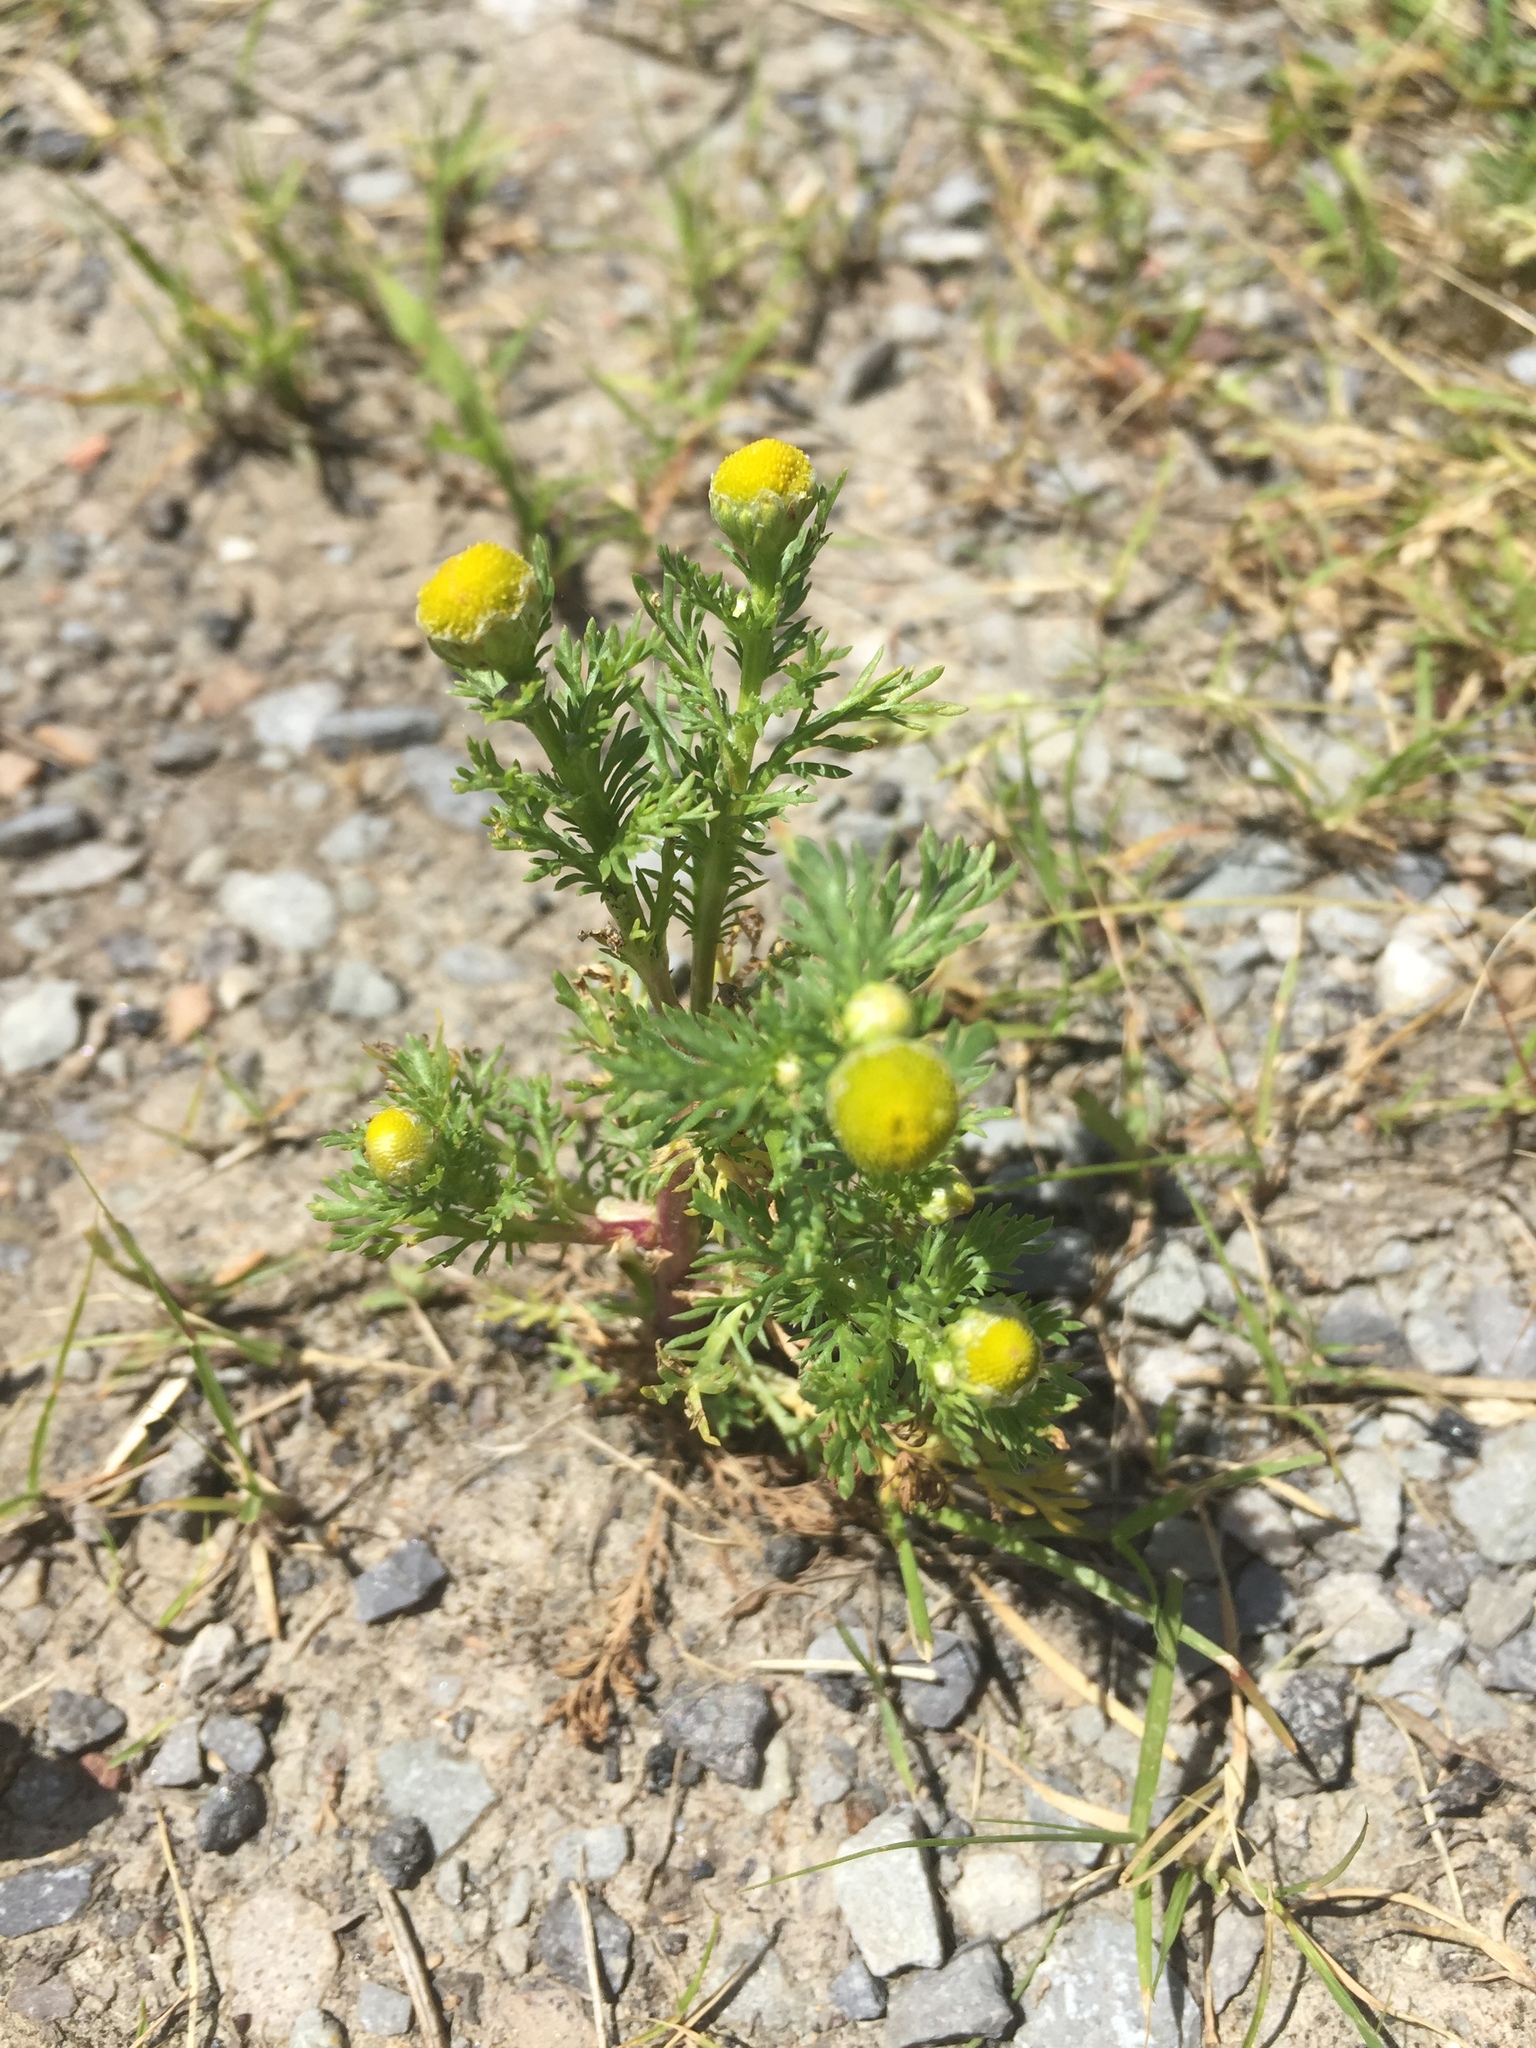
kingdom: Plantae
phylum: Tracheophyta
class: Magnoliopsida
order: Asterales
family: Asteraceae
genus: Matricaria
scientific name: Matricaria discoidea
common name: Disc mayweed
